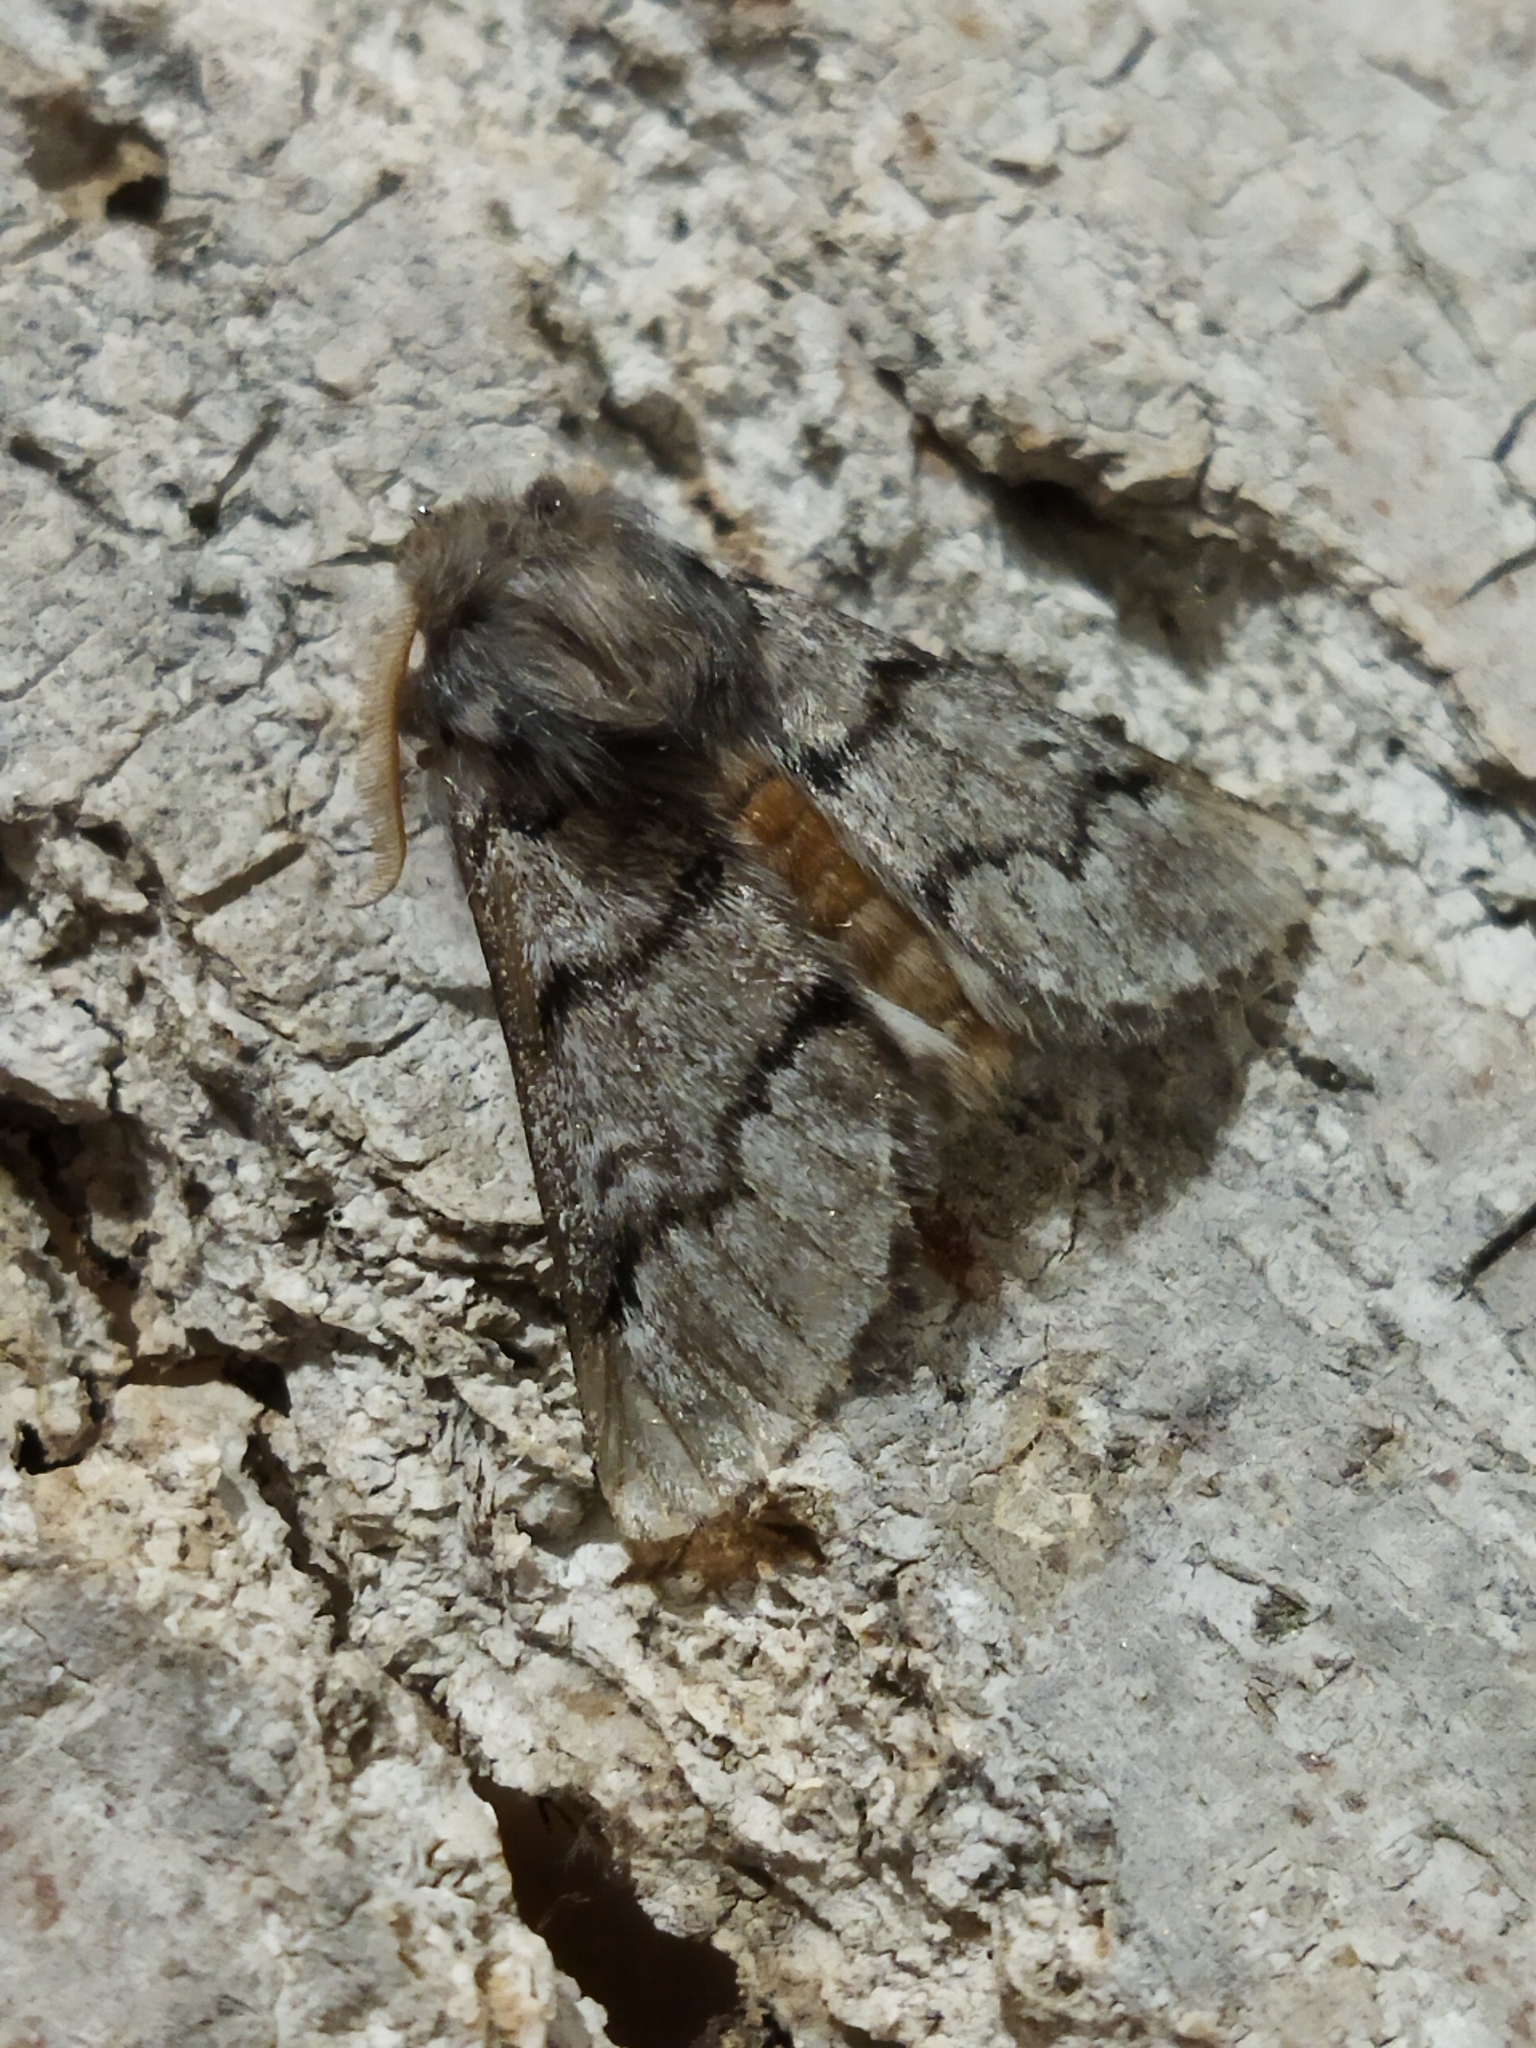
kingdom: Animalia
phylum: Arthropoda
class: Insecta
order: Lepidoptera
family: Notodontidae
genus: Thaumetopoea
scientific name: Thaumetopoea pityocampa
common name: Pine processionary
